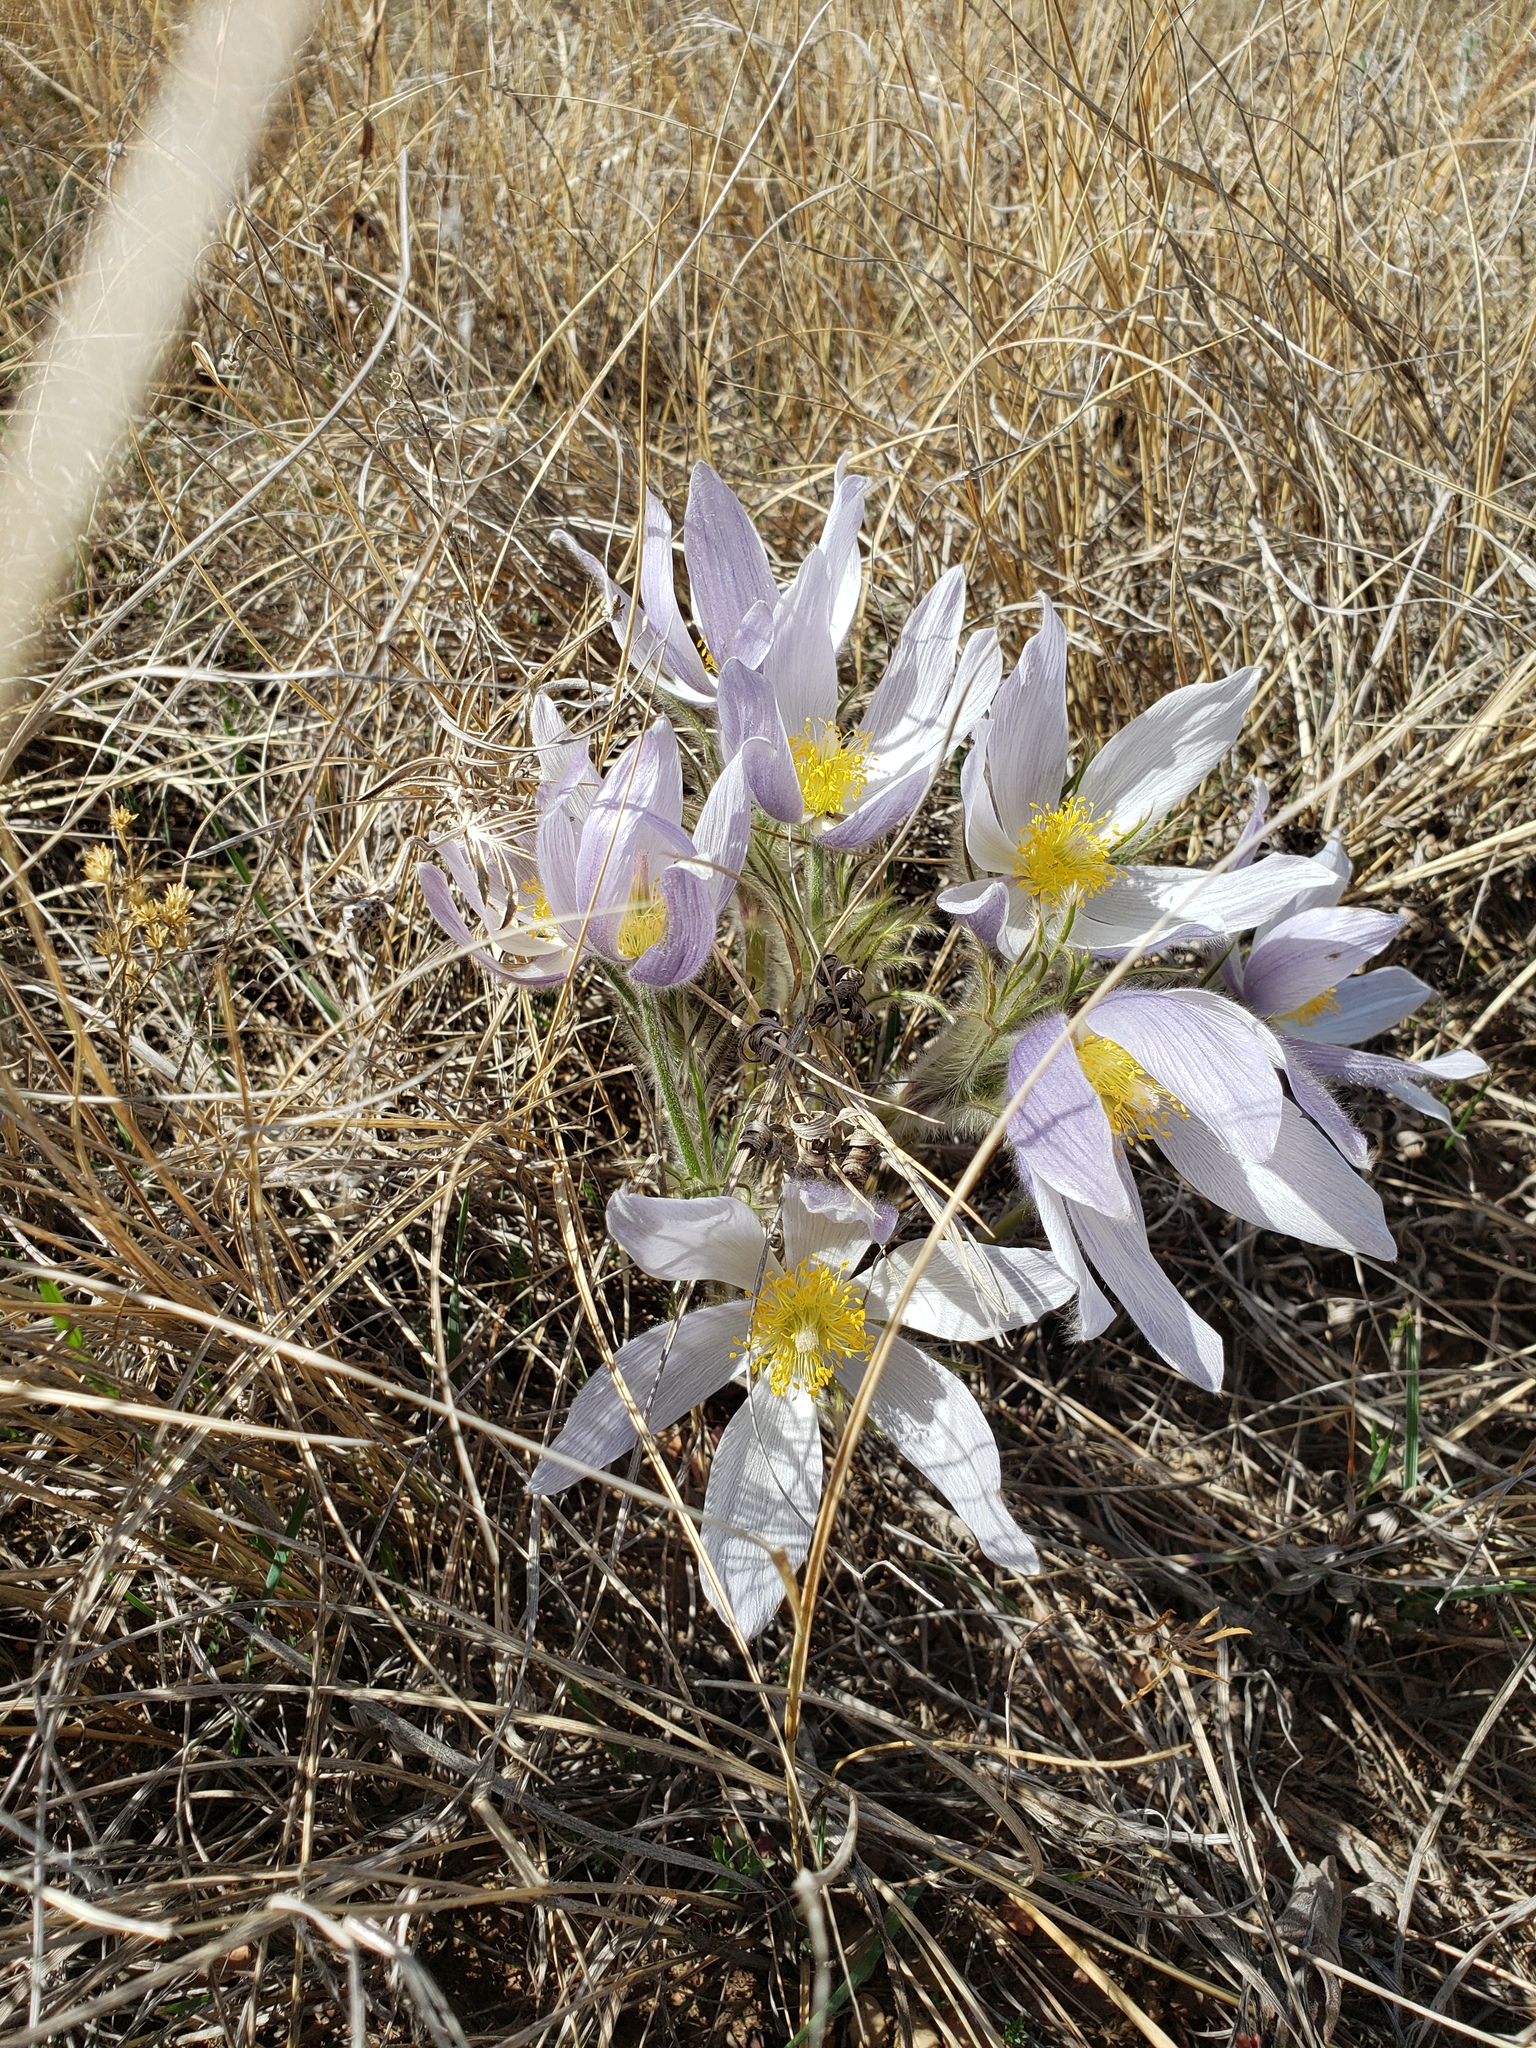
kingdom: Plantae
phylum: Tracheophyta
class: Magnoliopsida
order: Ranunculales
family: Ranunculaceae
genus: Pulsatilla
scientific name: Pulsatilla nuttalliana
